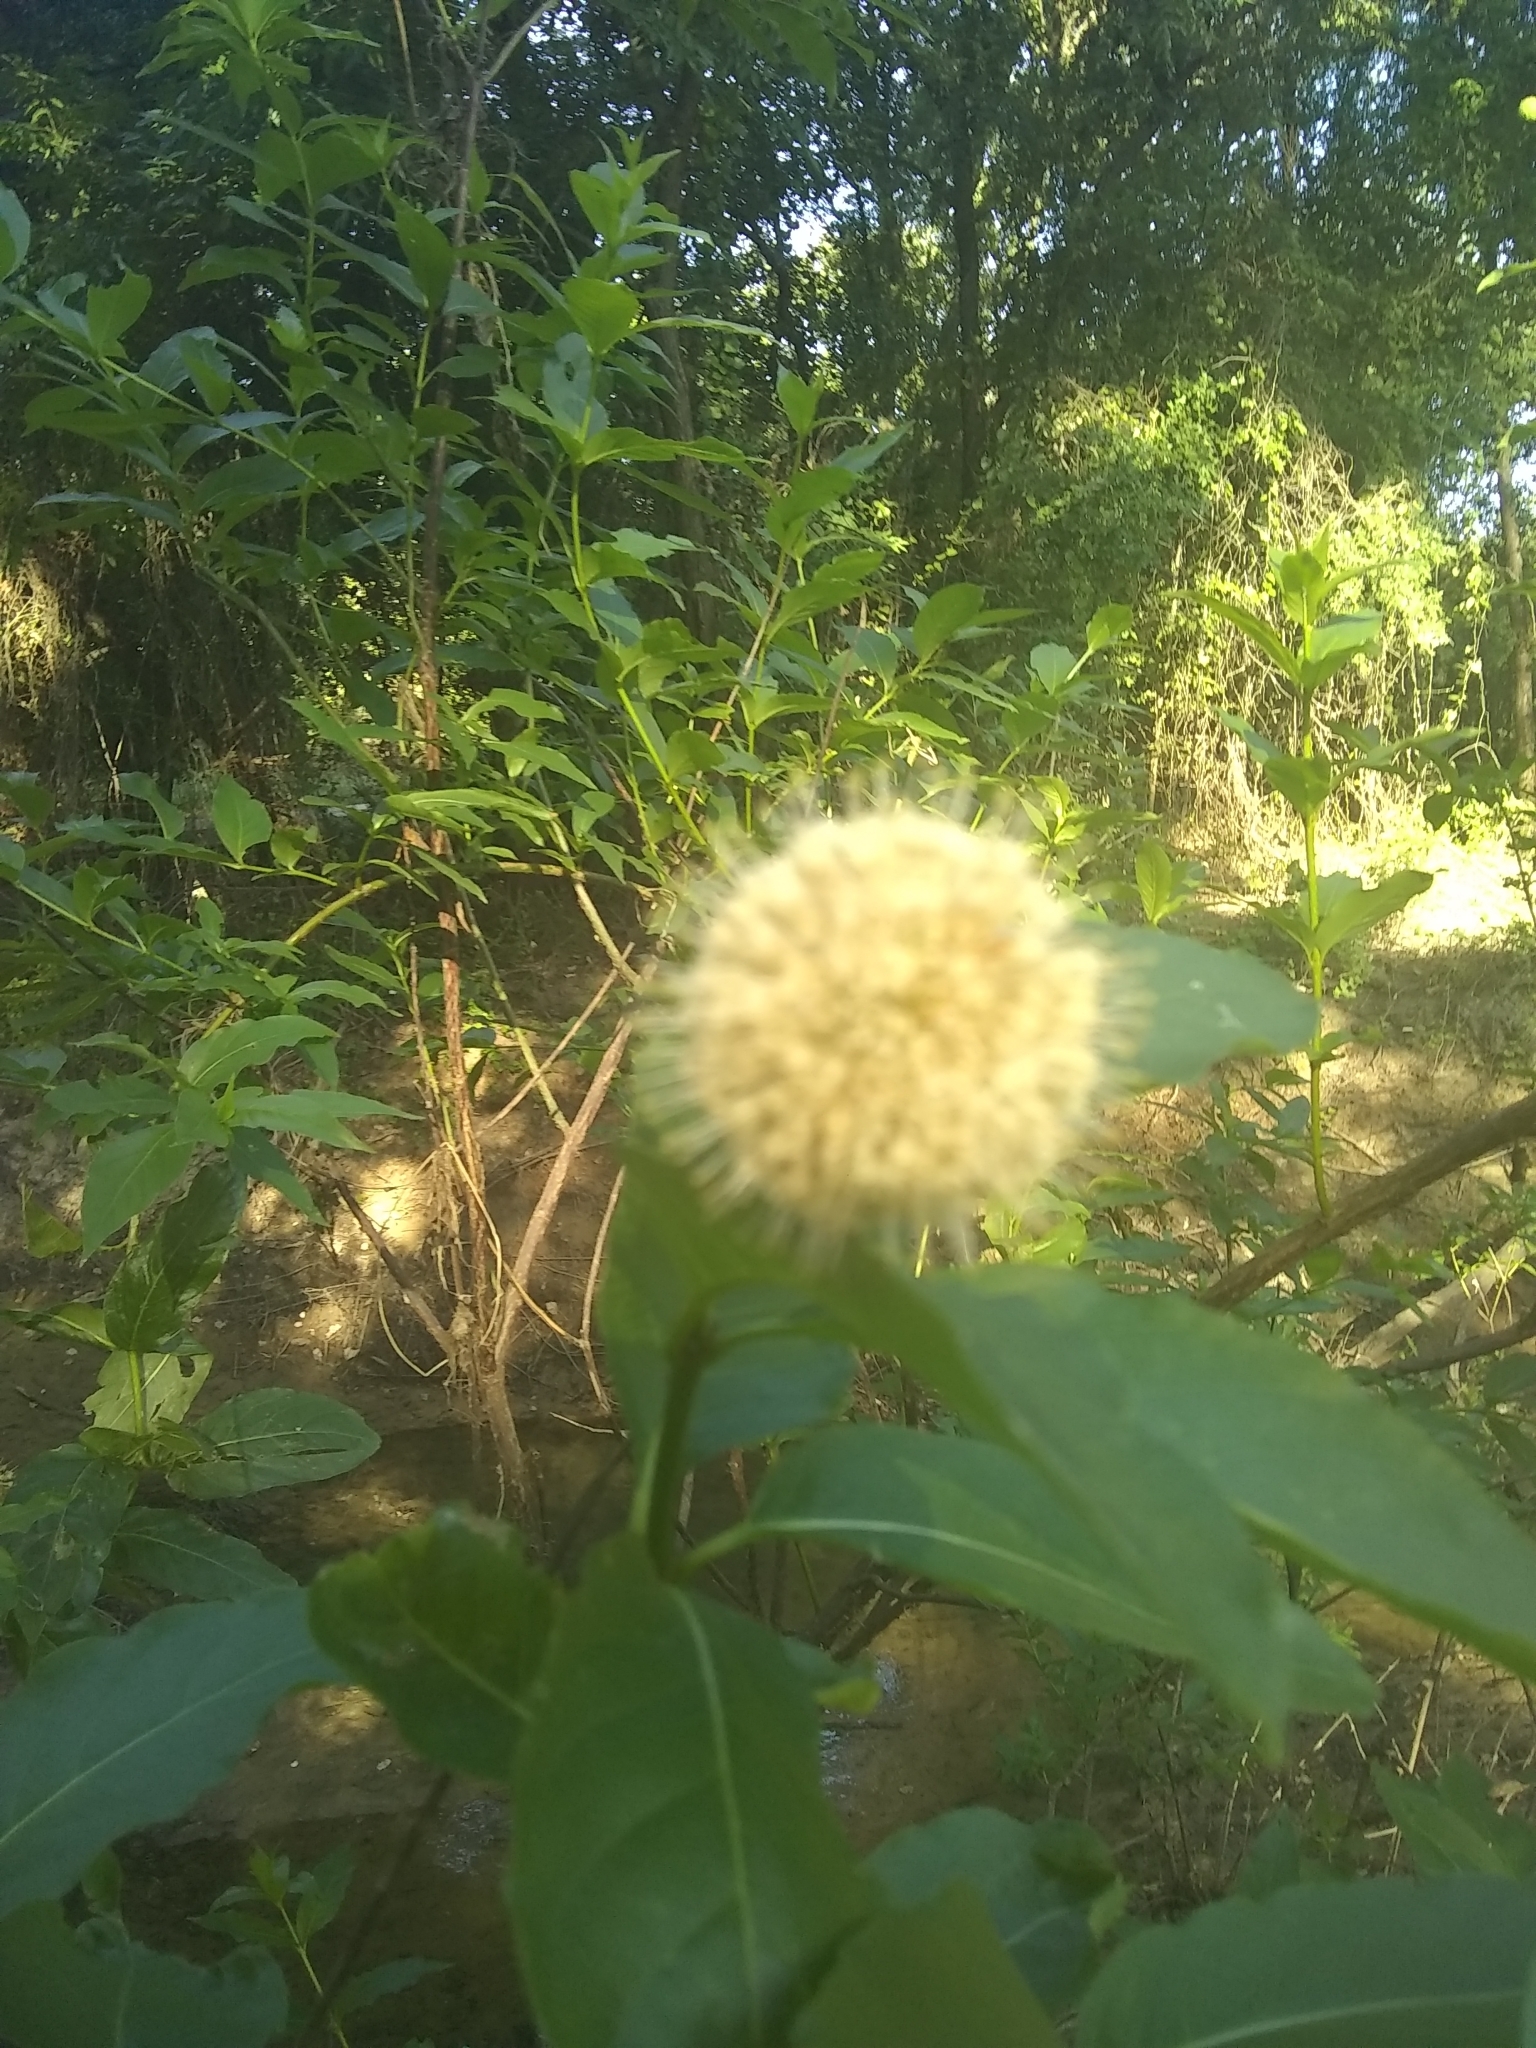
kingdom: Plantae
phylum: Tracheophyta
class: Magnoliopsida
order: Gentianales
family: Rubiaceae
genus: Cephalanthus
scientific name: Cephalanthus occidentalis
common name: Button-willow
